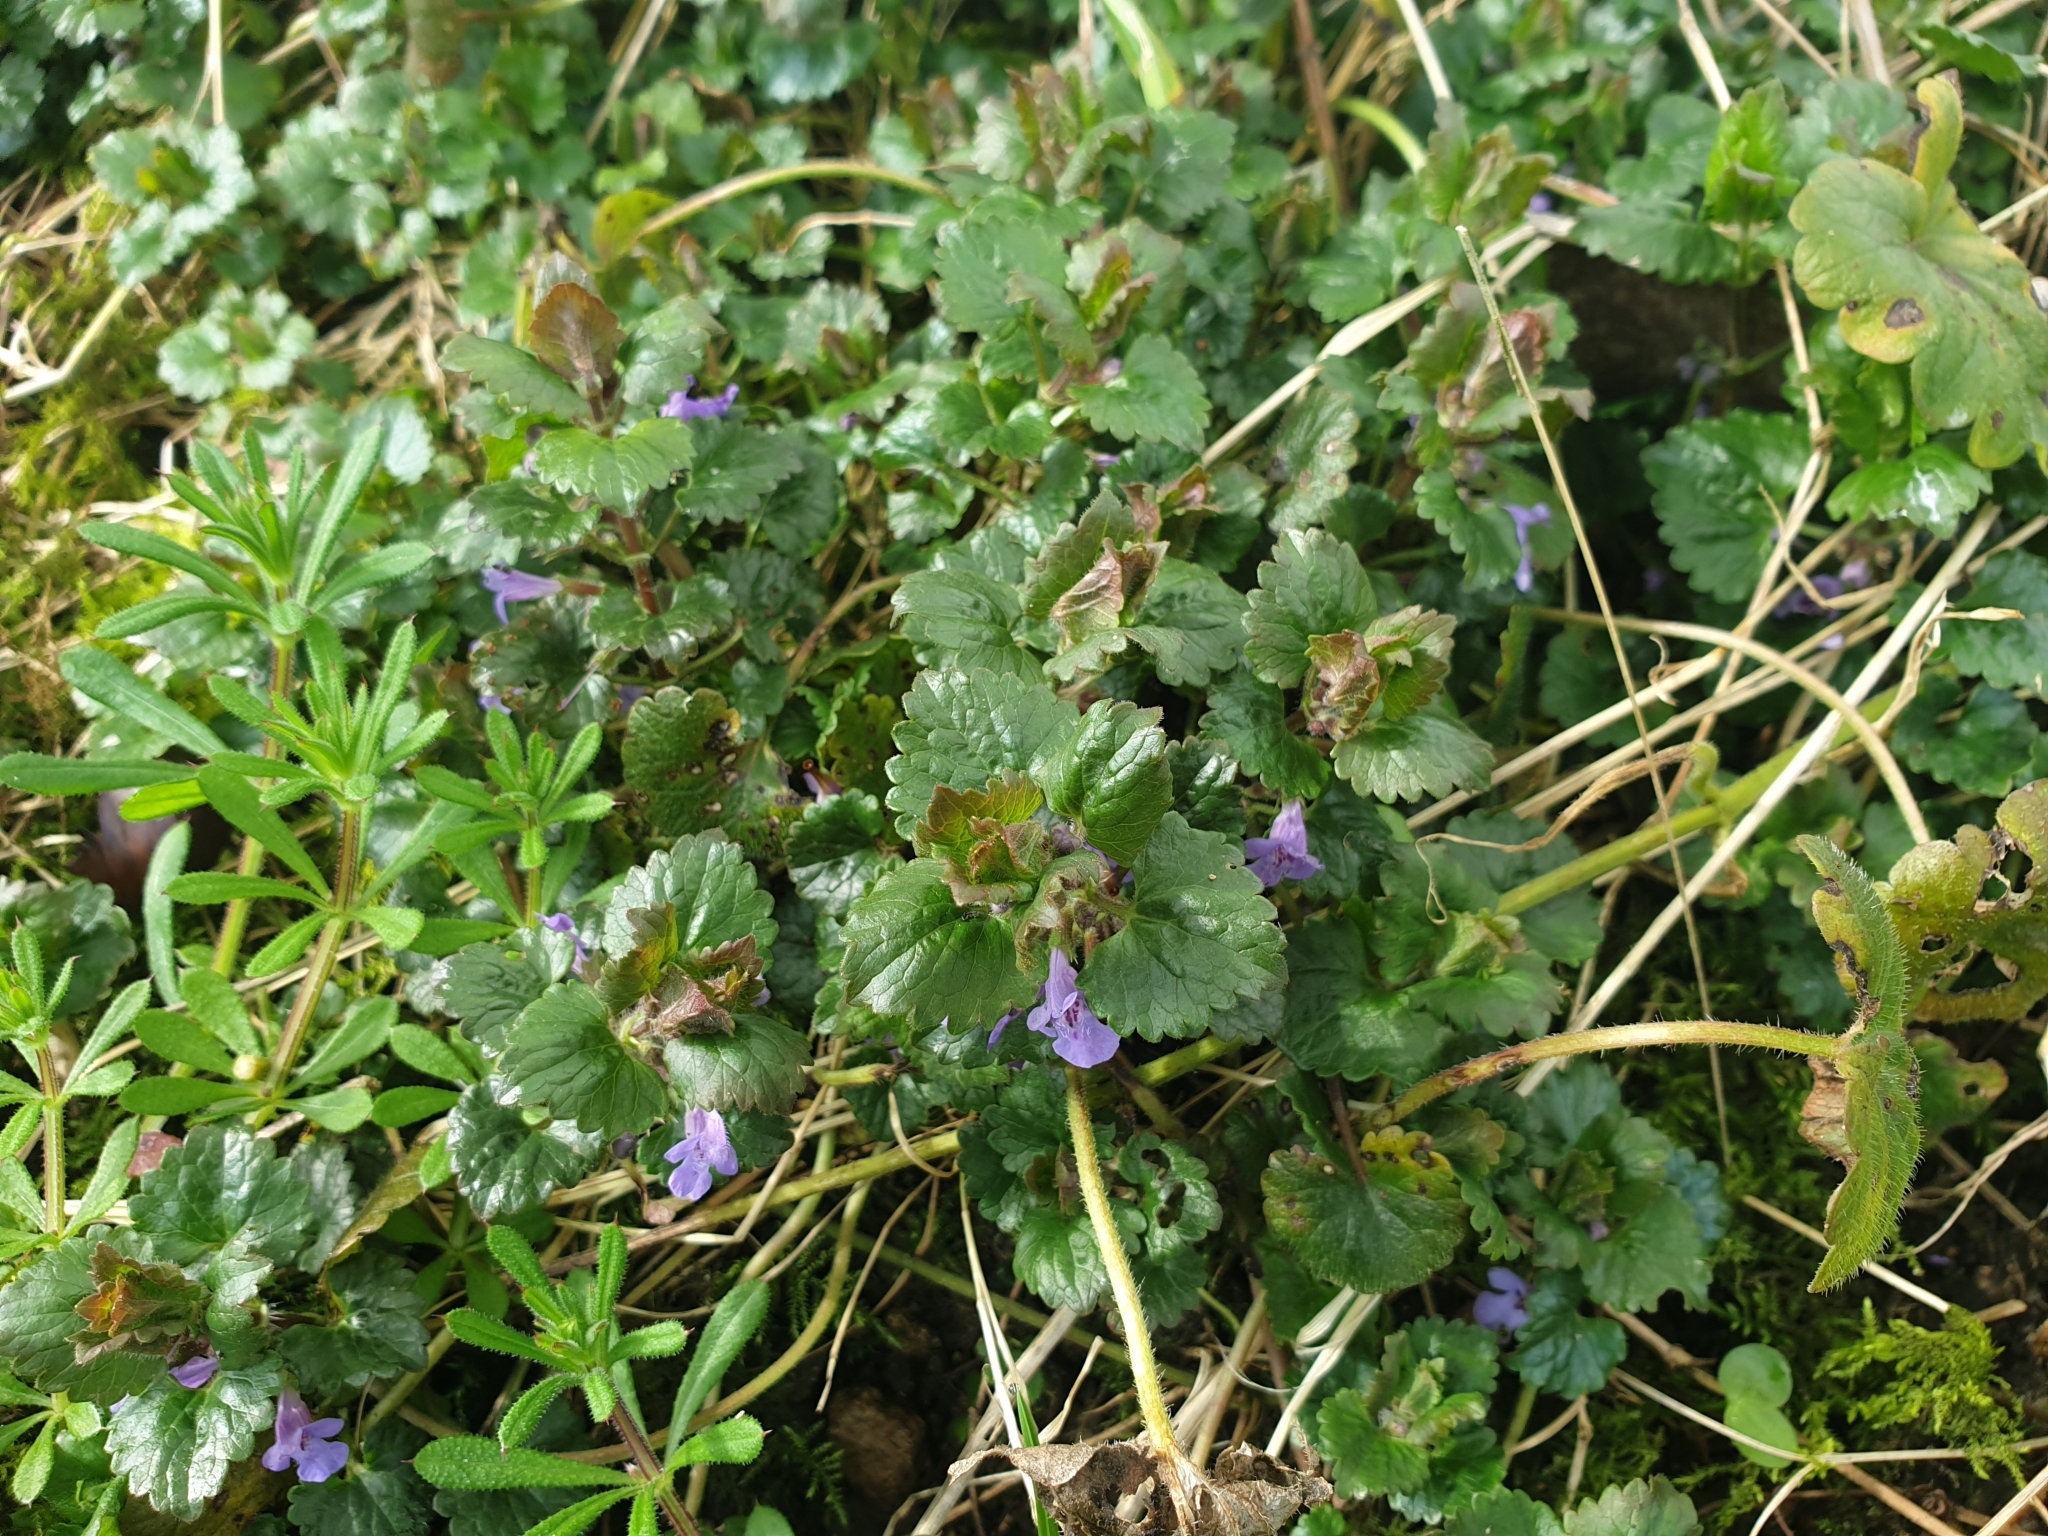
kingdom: Plantae
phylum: Tracheophyta
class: Magnoliopsida
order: Lamiales
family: Lamiaceae
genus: Glechoma
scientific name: Glechoma hederacea
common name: Ground ivy
